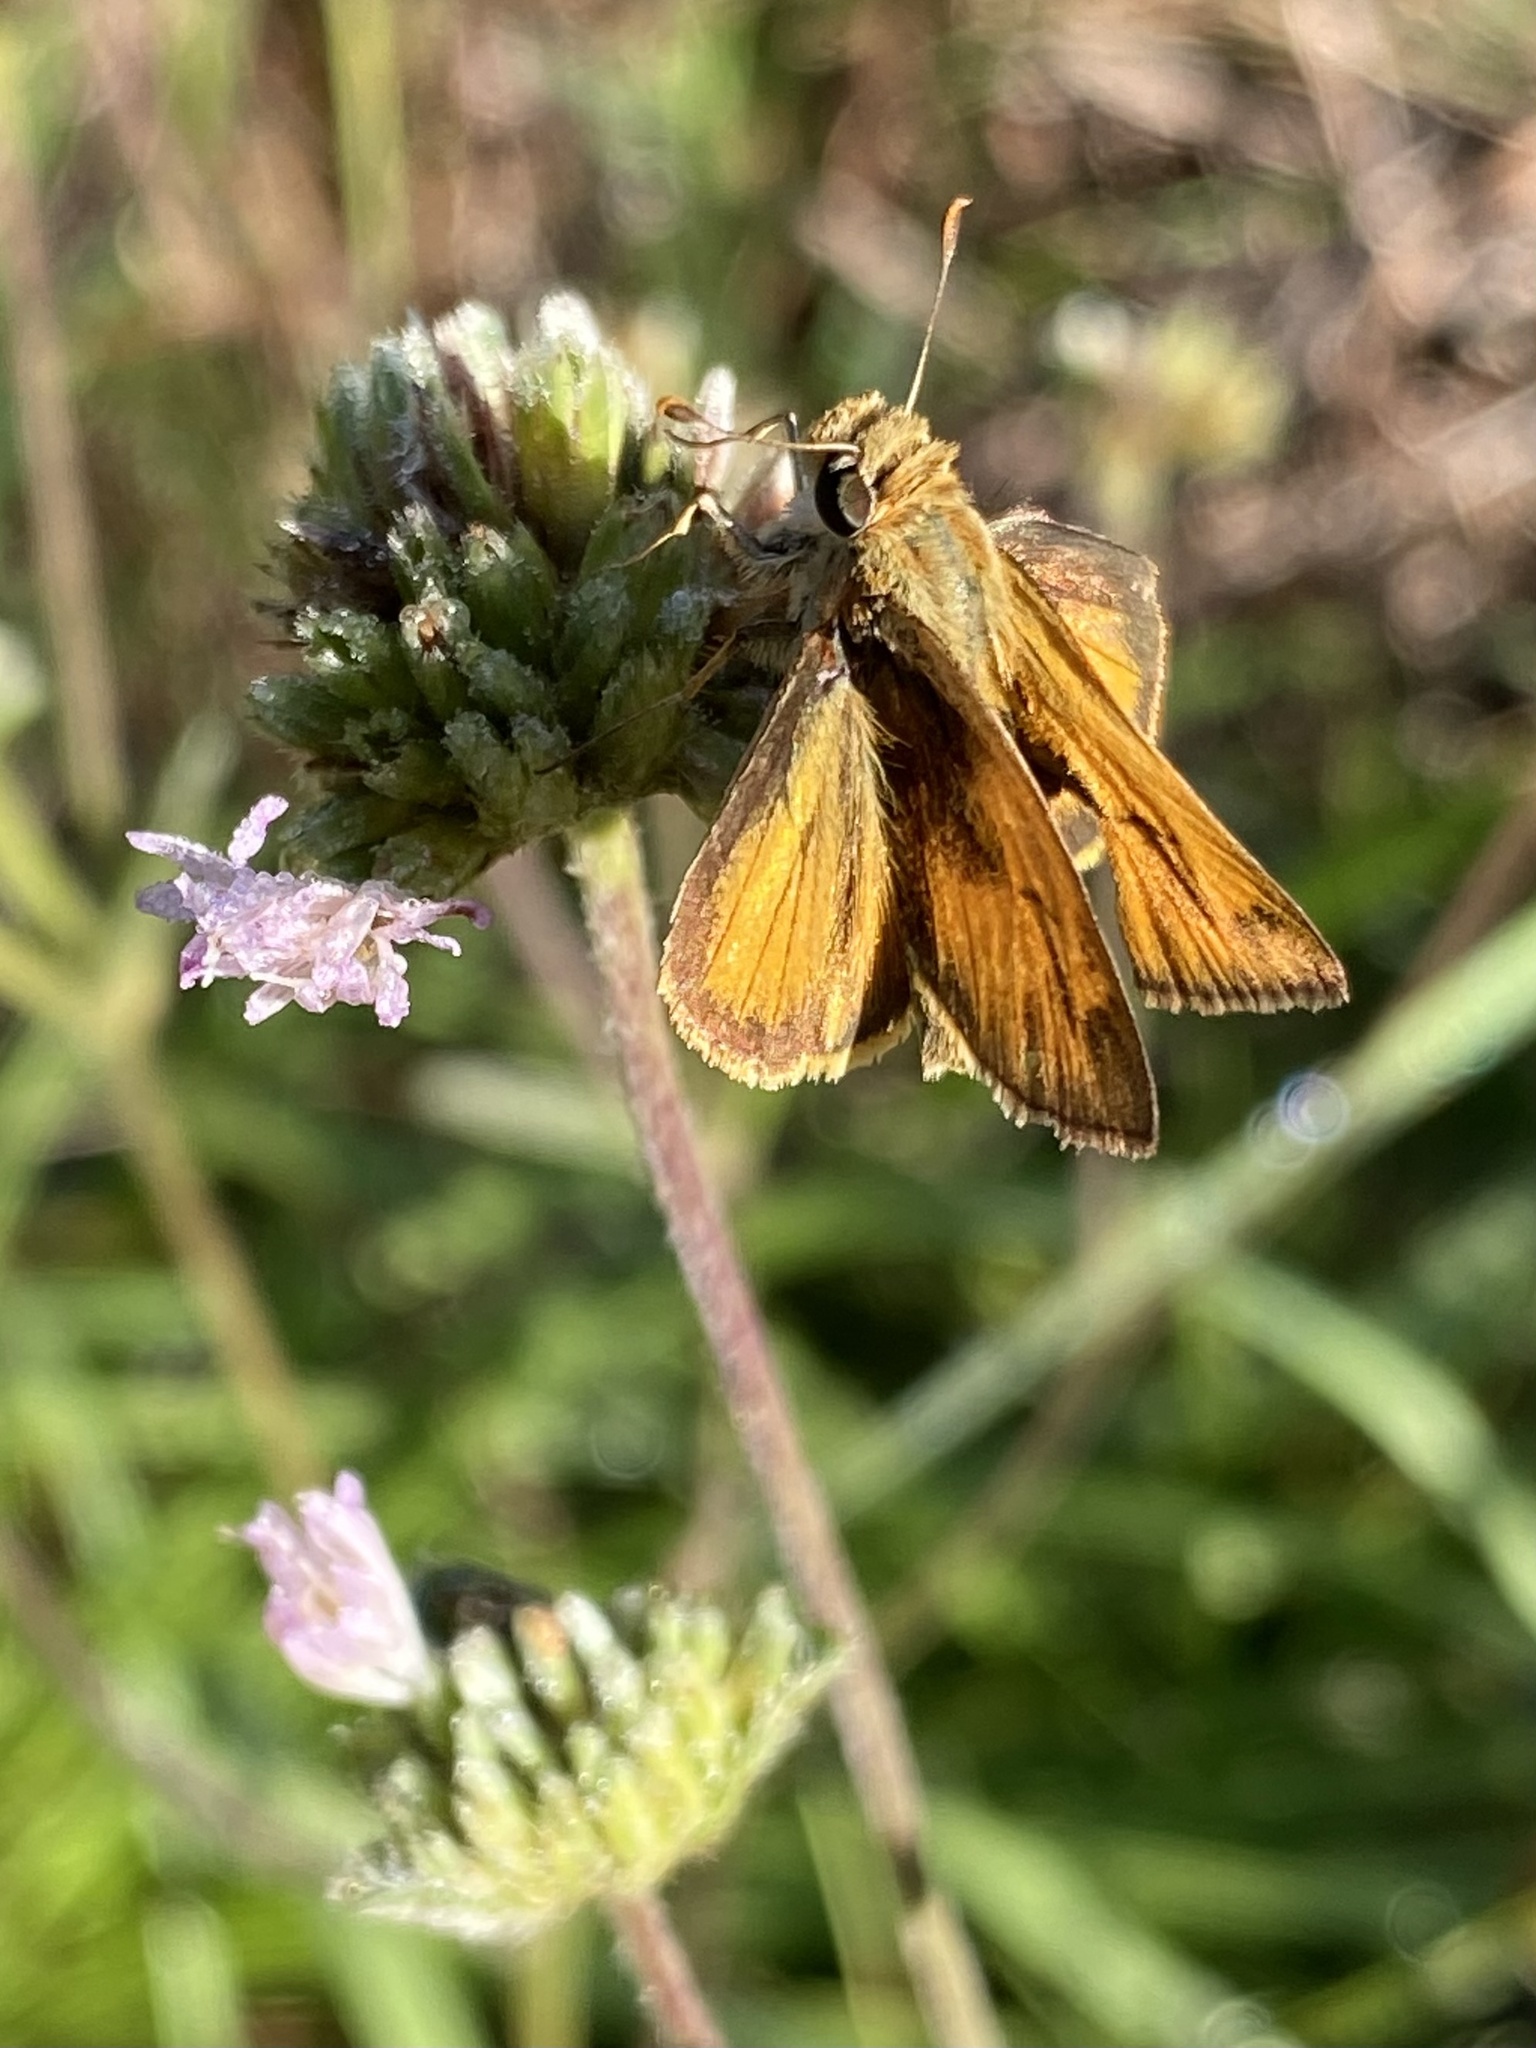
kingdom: Animalia
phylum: Arthropoda
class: Insecta
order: Lepidoptera
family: Hesperiidae
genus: Polites
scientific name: Polites vibex
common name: Whirlabout
